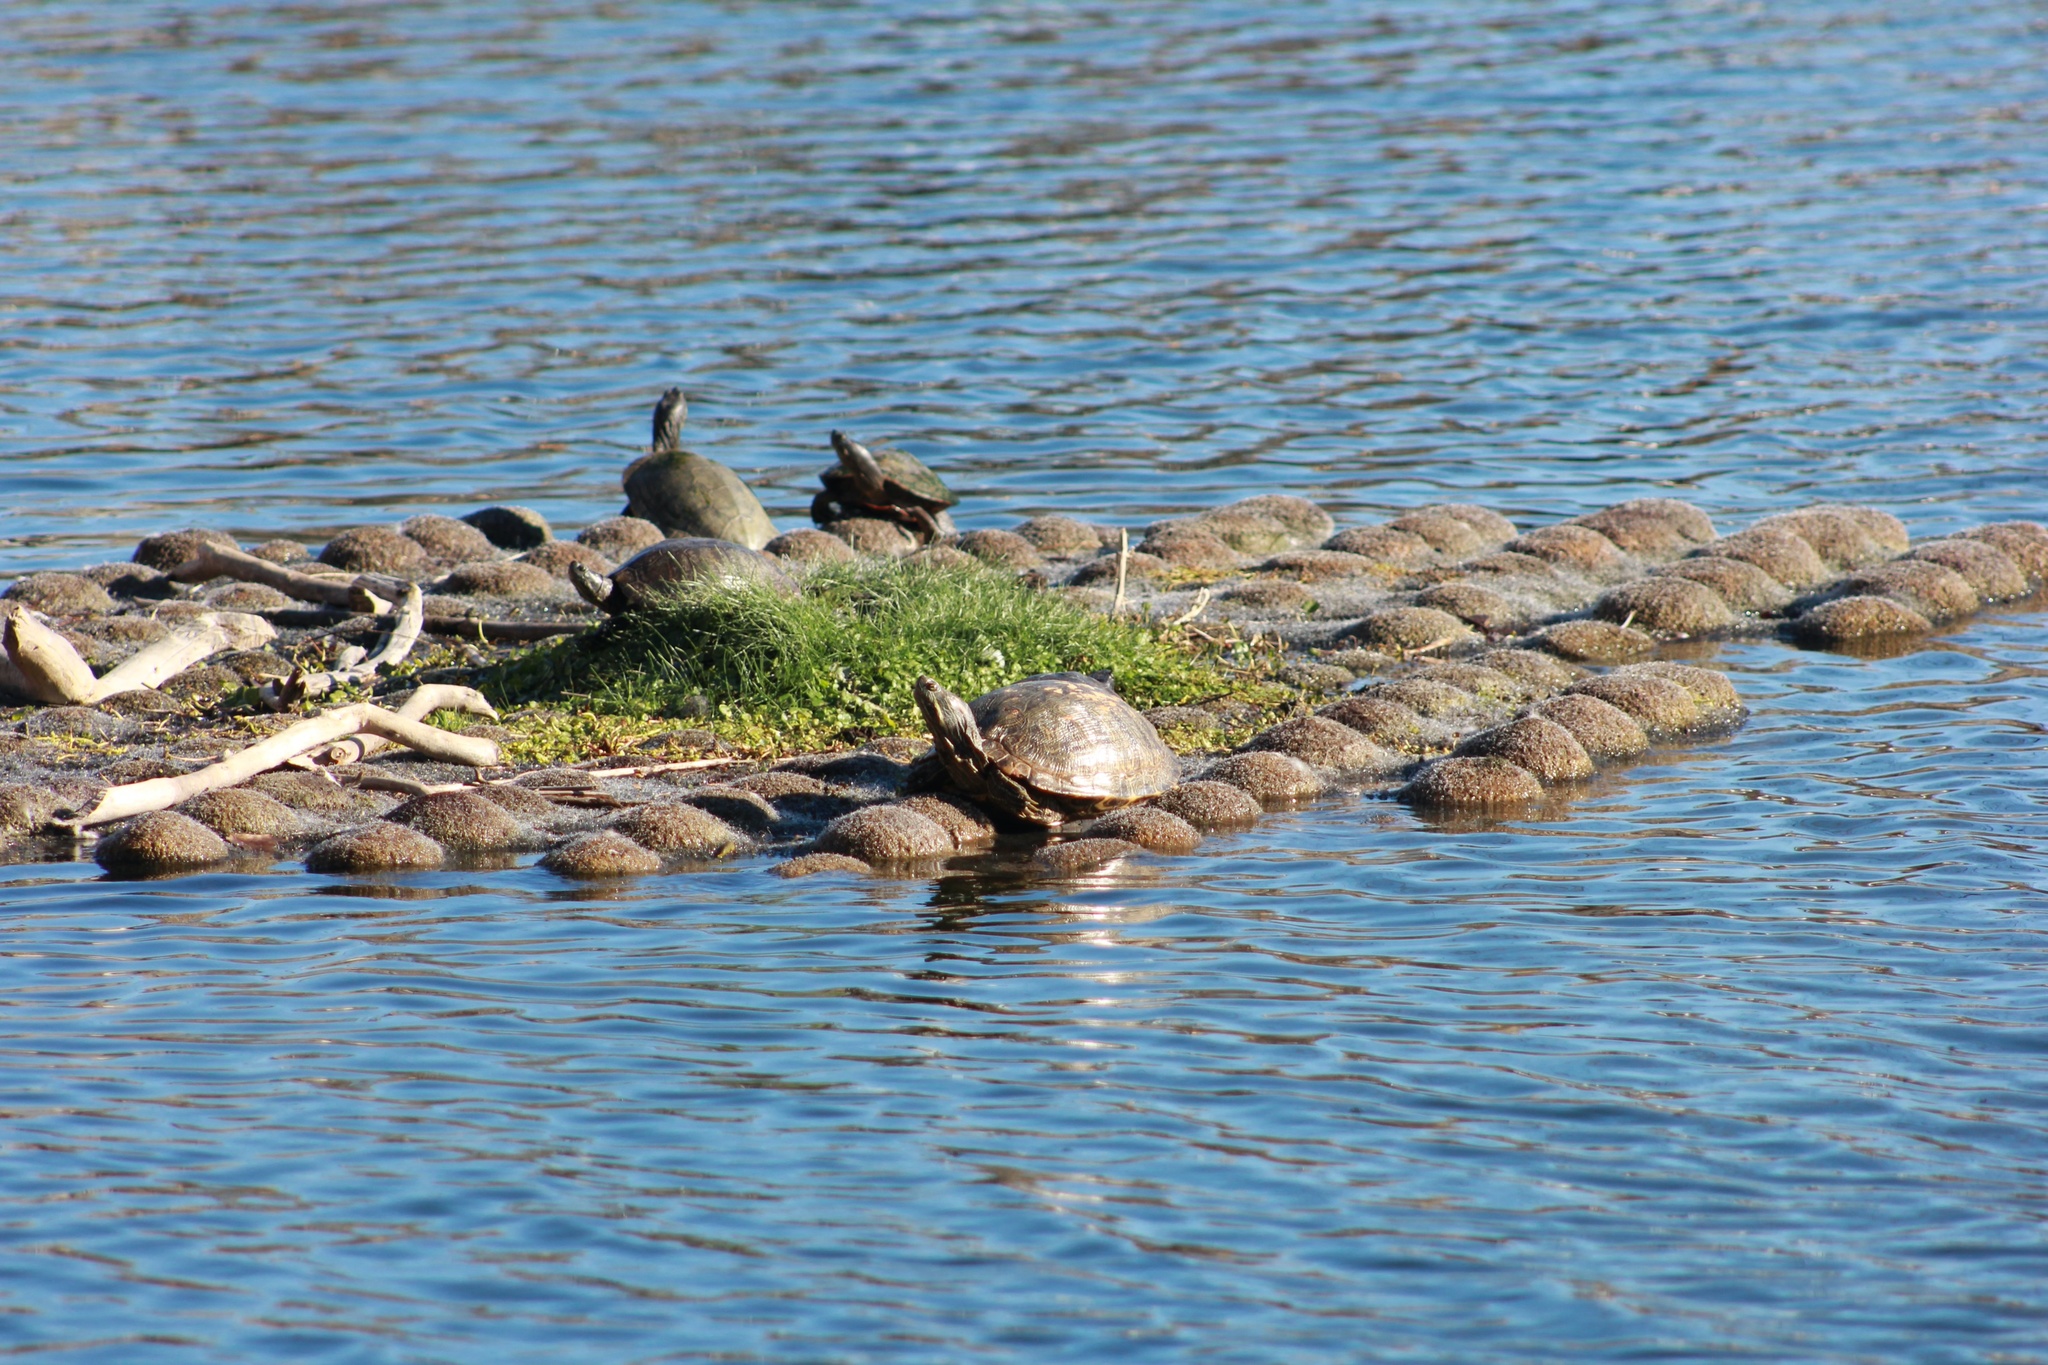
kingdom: Animalia
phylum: Chordata
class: Testudines
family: Emydidae
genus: Trachemys
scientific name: Trachemys scripta
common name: Slider
